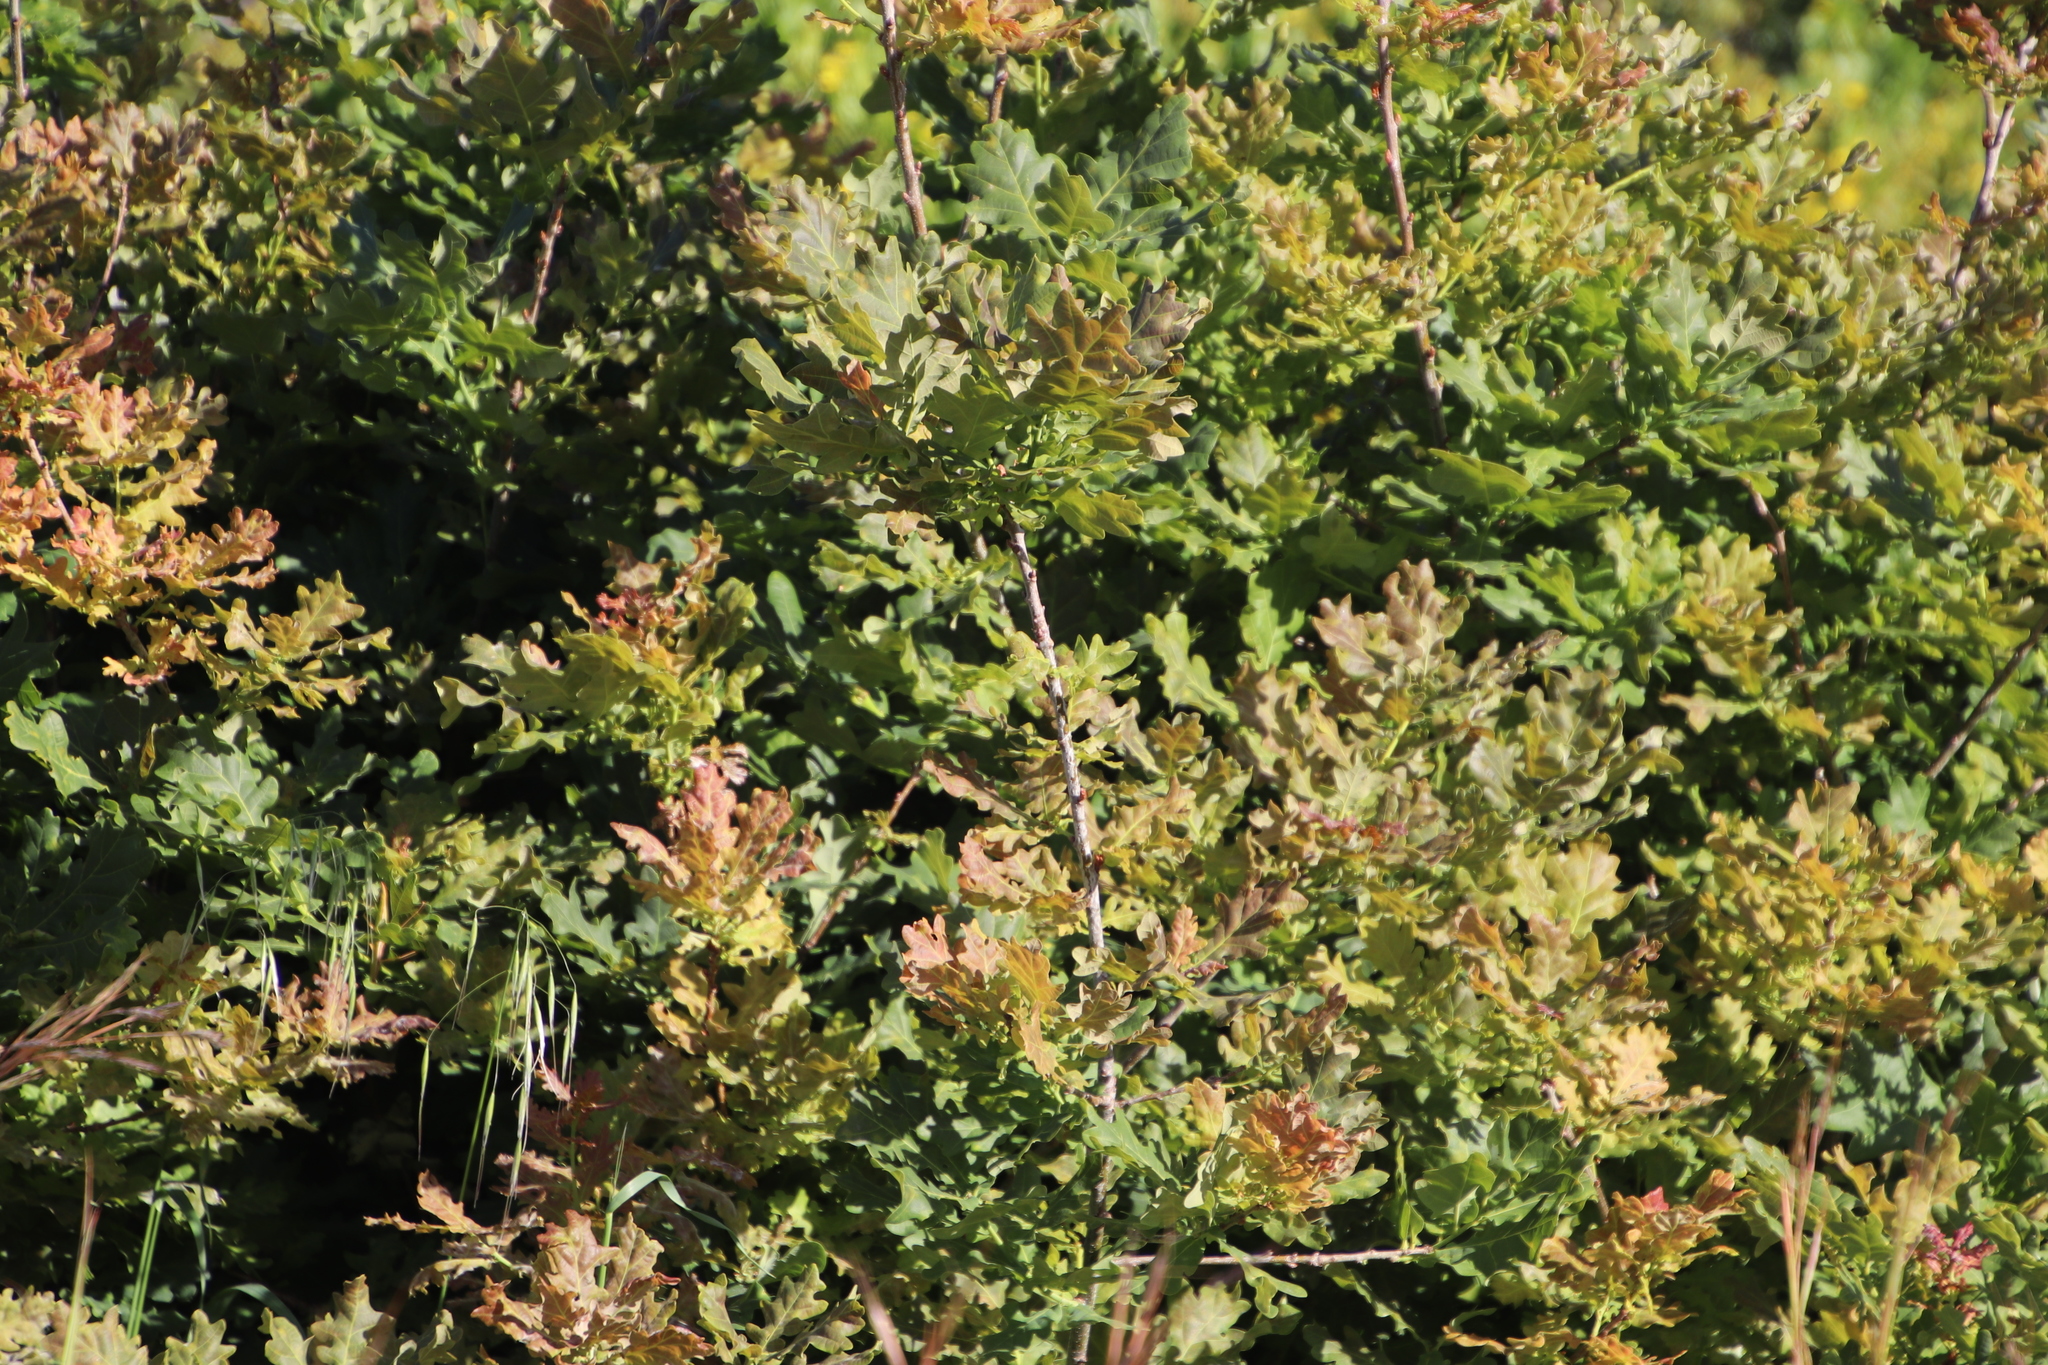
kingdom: Plantae
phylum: Tracheophyta
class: Magnoliopsida
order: Fagales
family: Fagaceae
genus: Quercus
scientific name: Quercus robur
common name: Pedunculate oak
